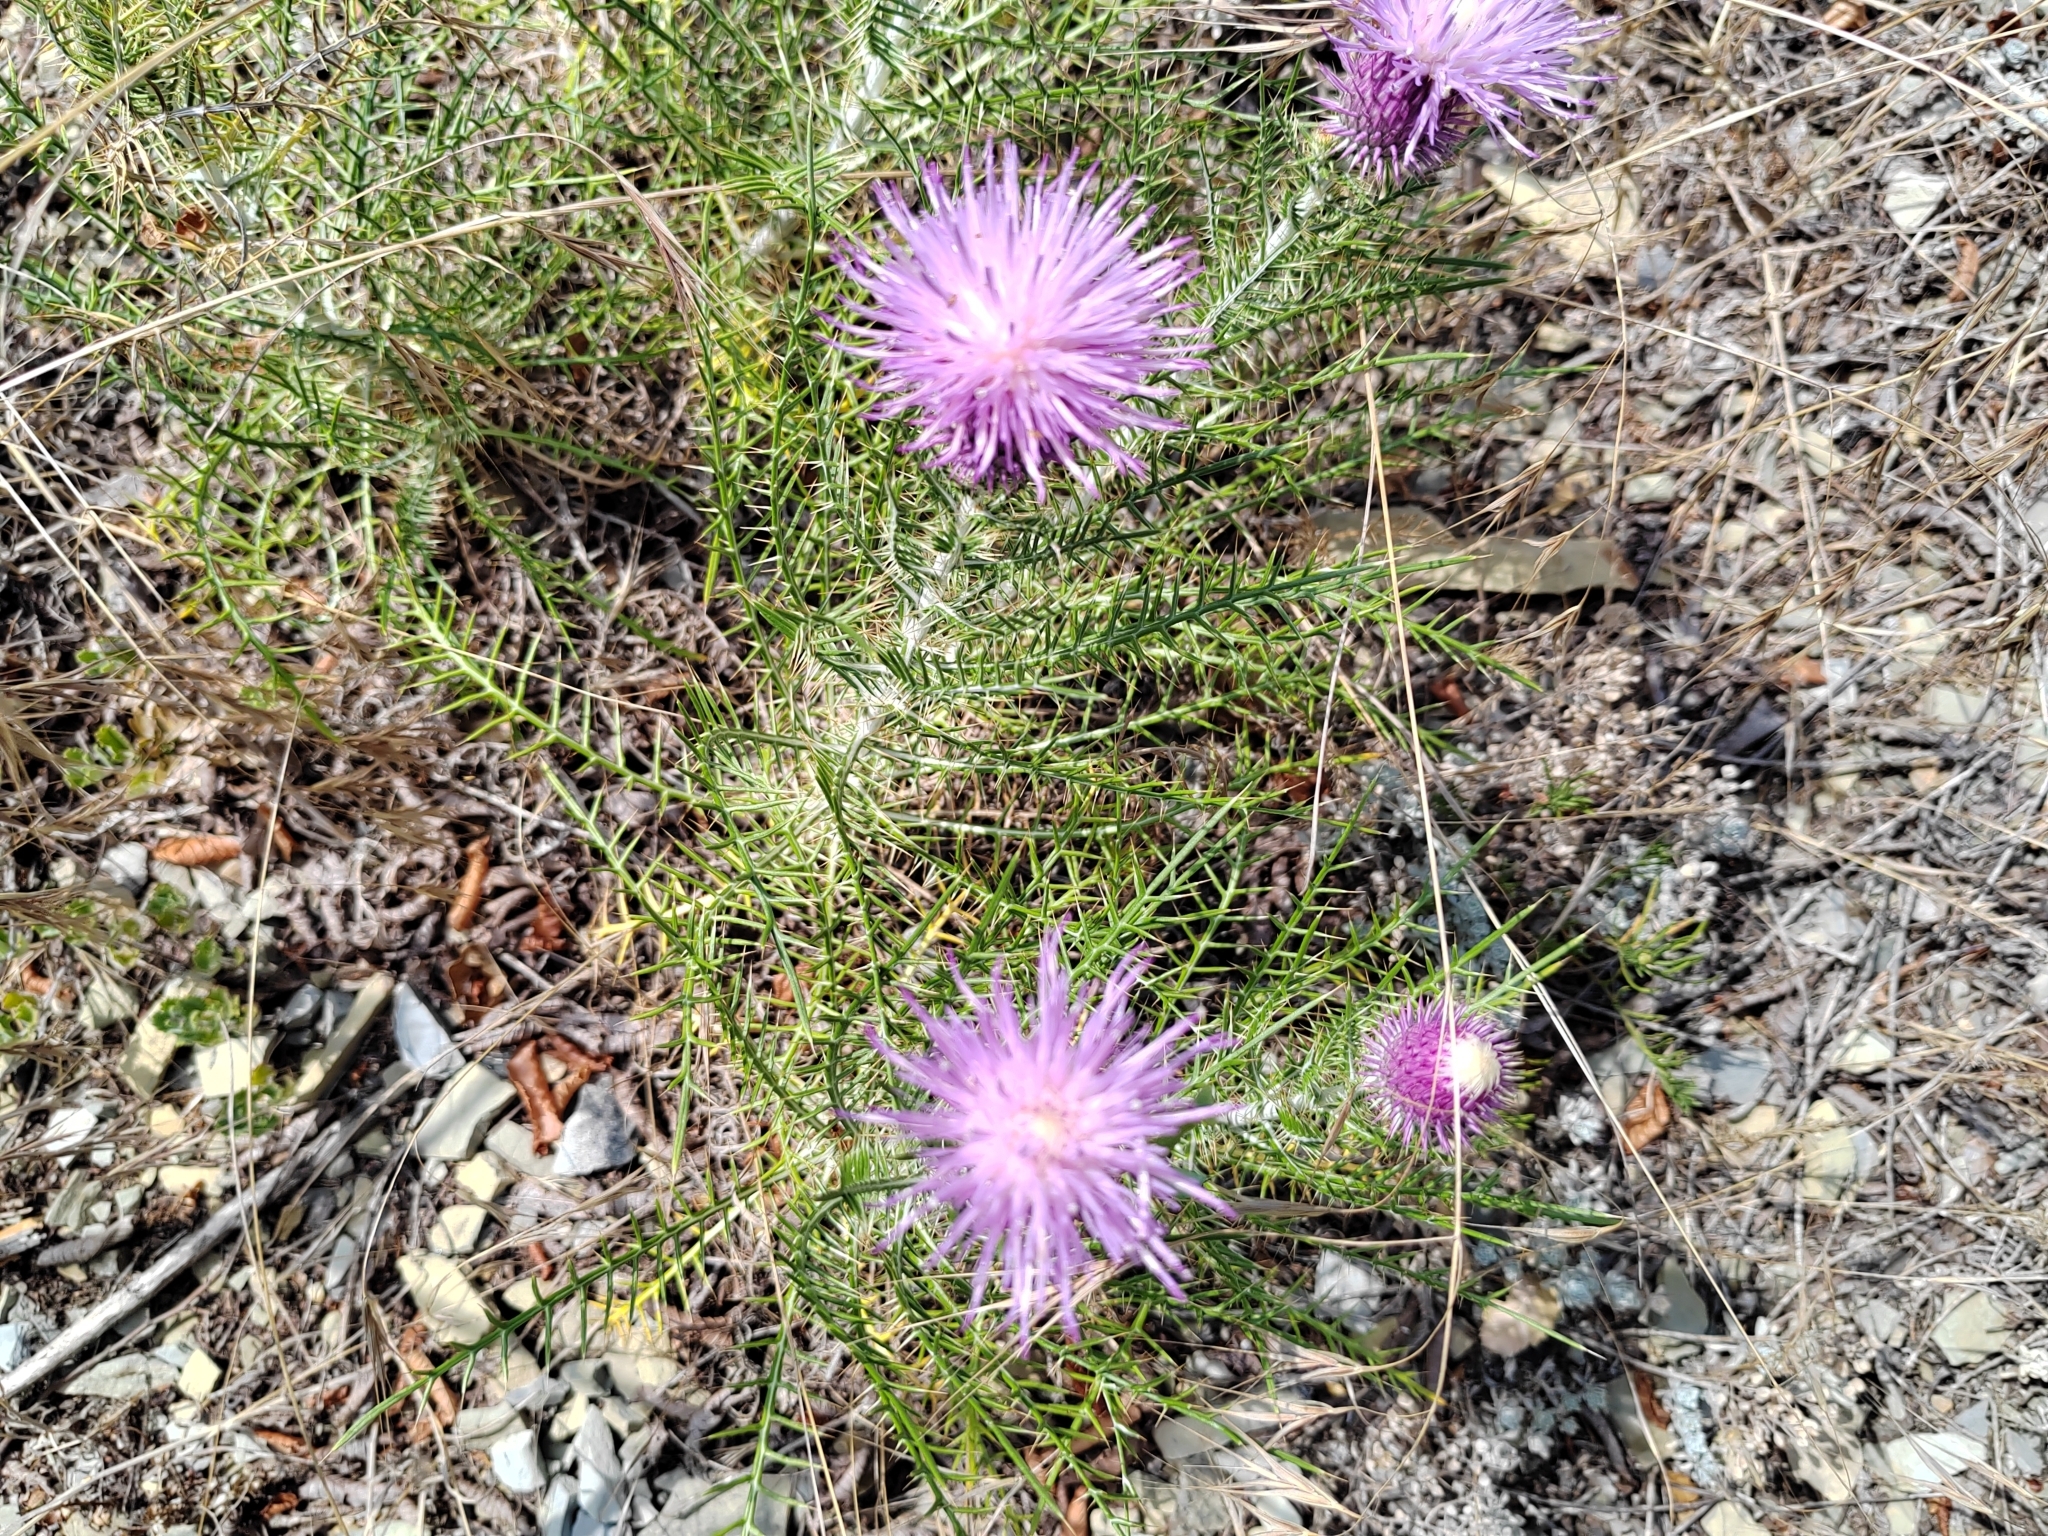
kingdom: Plantae
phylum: Tracheophyta
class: Magnoliopsida
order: Asterales
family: Asteraceae
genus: Ptilostemon
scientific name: Ptilostemon echinocephalus
